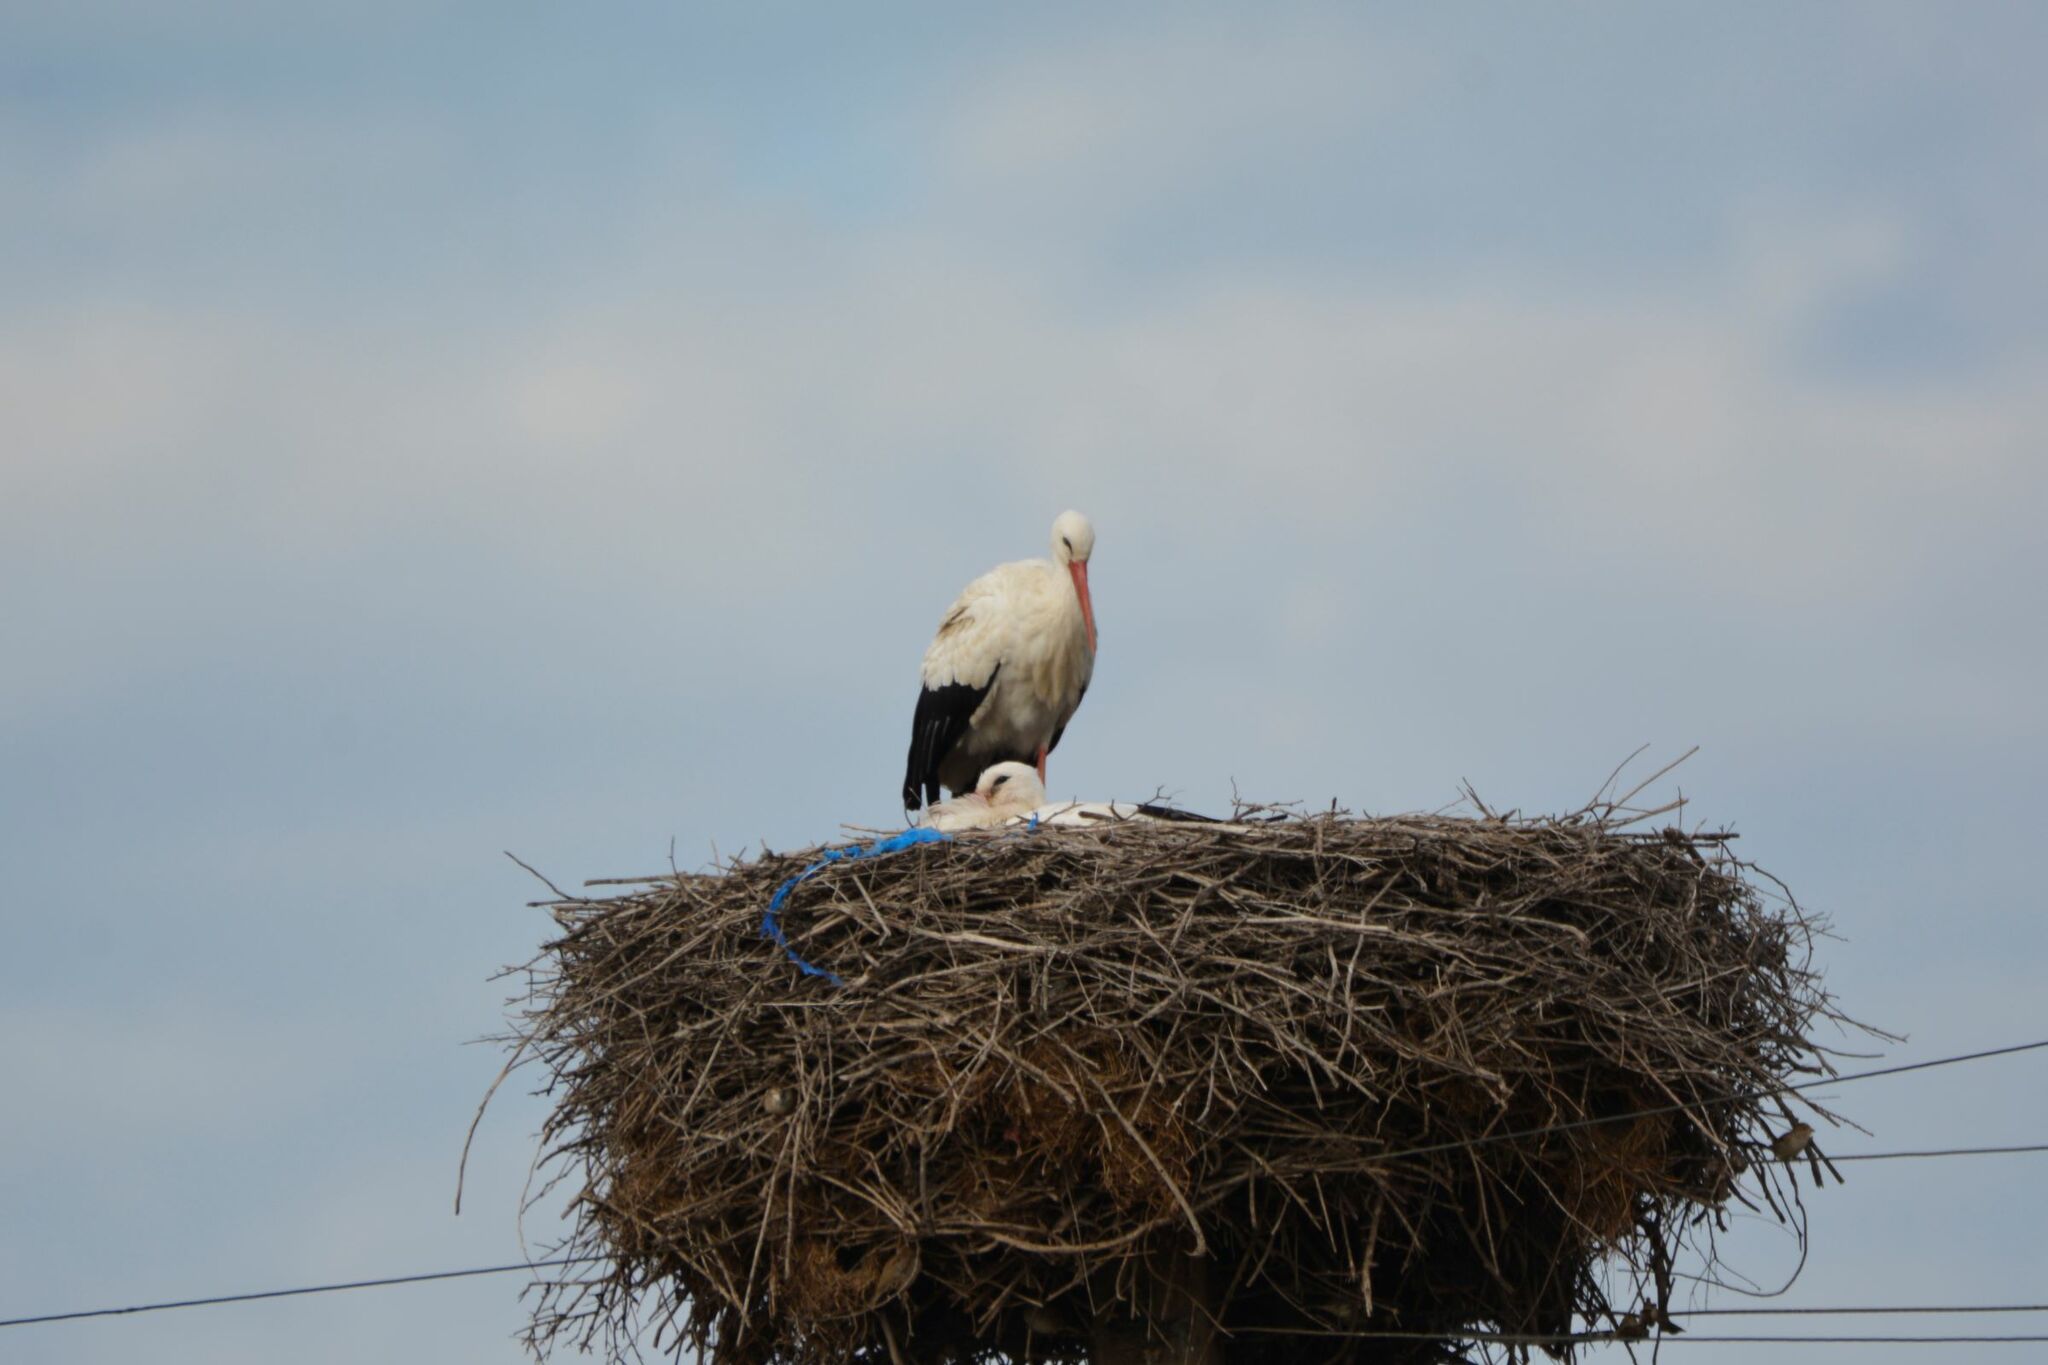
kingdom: Animalia
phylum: Chordata
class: Aves
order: Ciconiiformes
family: Ciconiidae
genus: Ciconia
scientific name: Ciconia ciconia
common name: White stork
